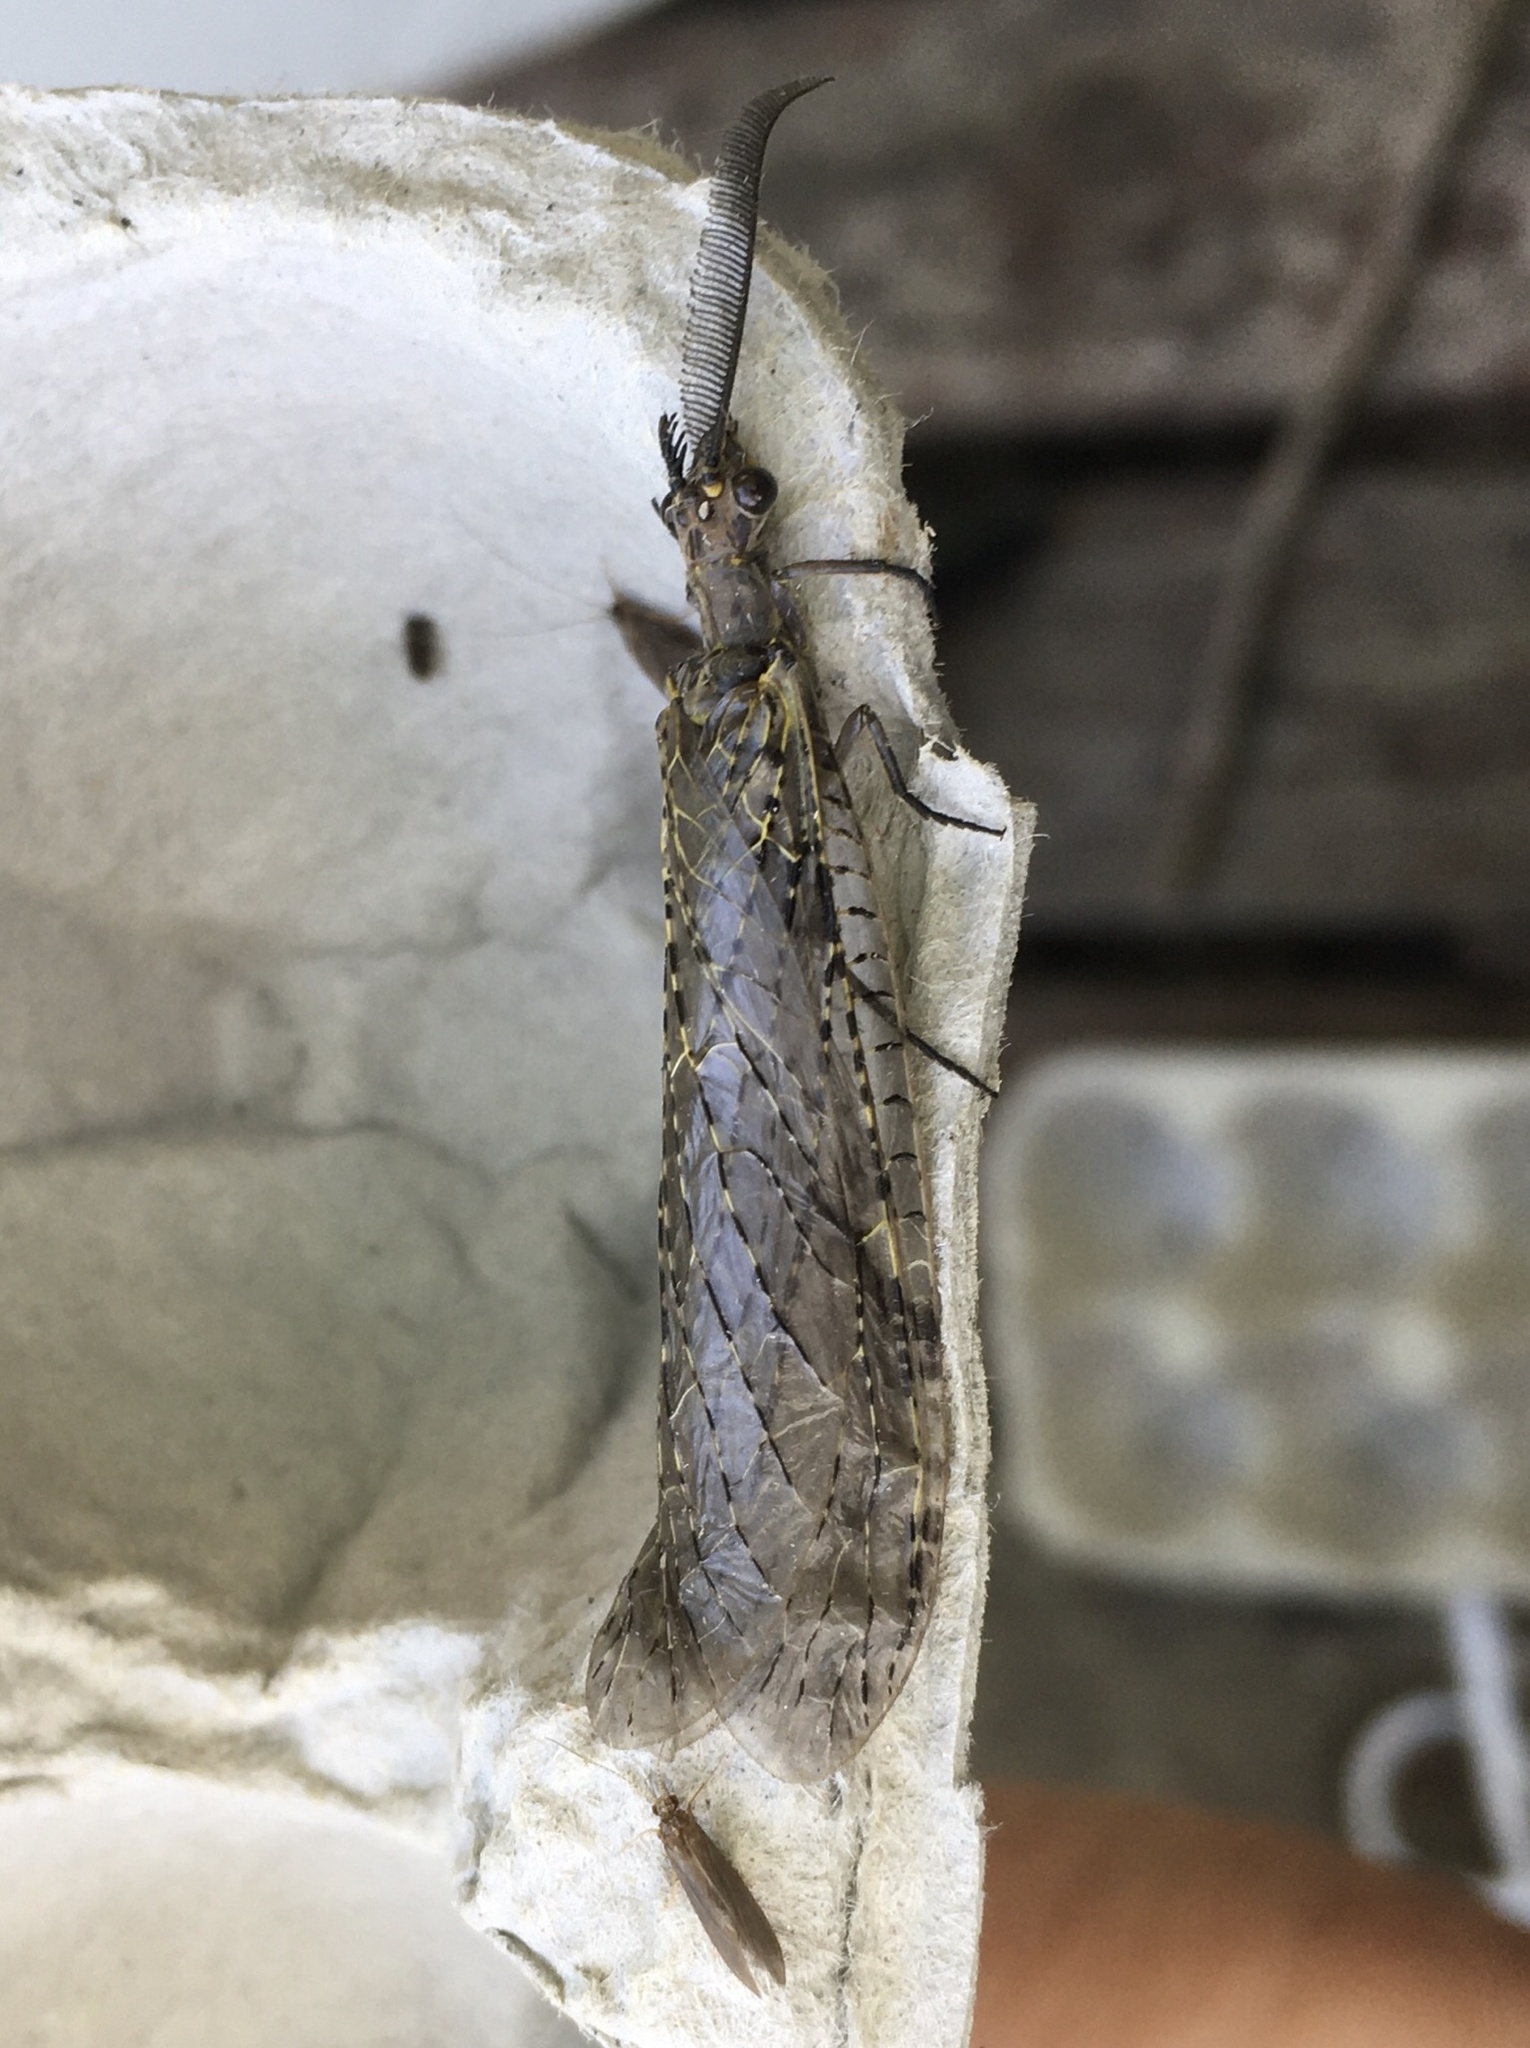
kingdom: Animalia
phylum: Arthropoda
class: Insecta
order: Megaloptera
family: Corydalidae
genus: Chauliodes
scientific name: Chauliodes rastricornis
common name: Spring fishfly
